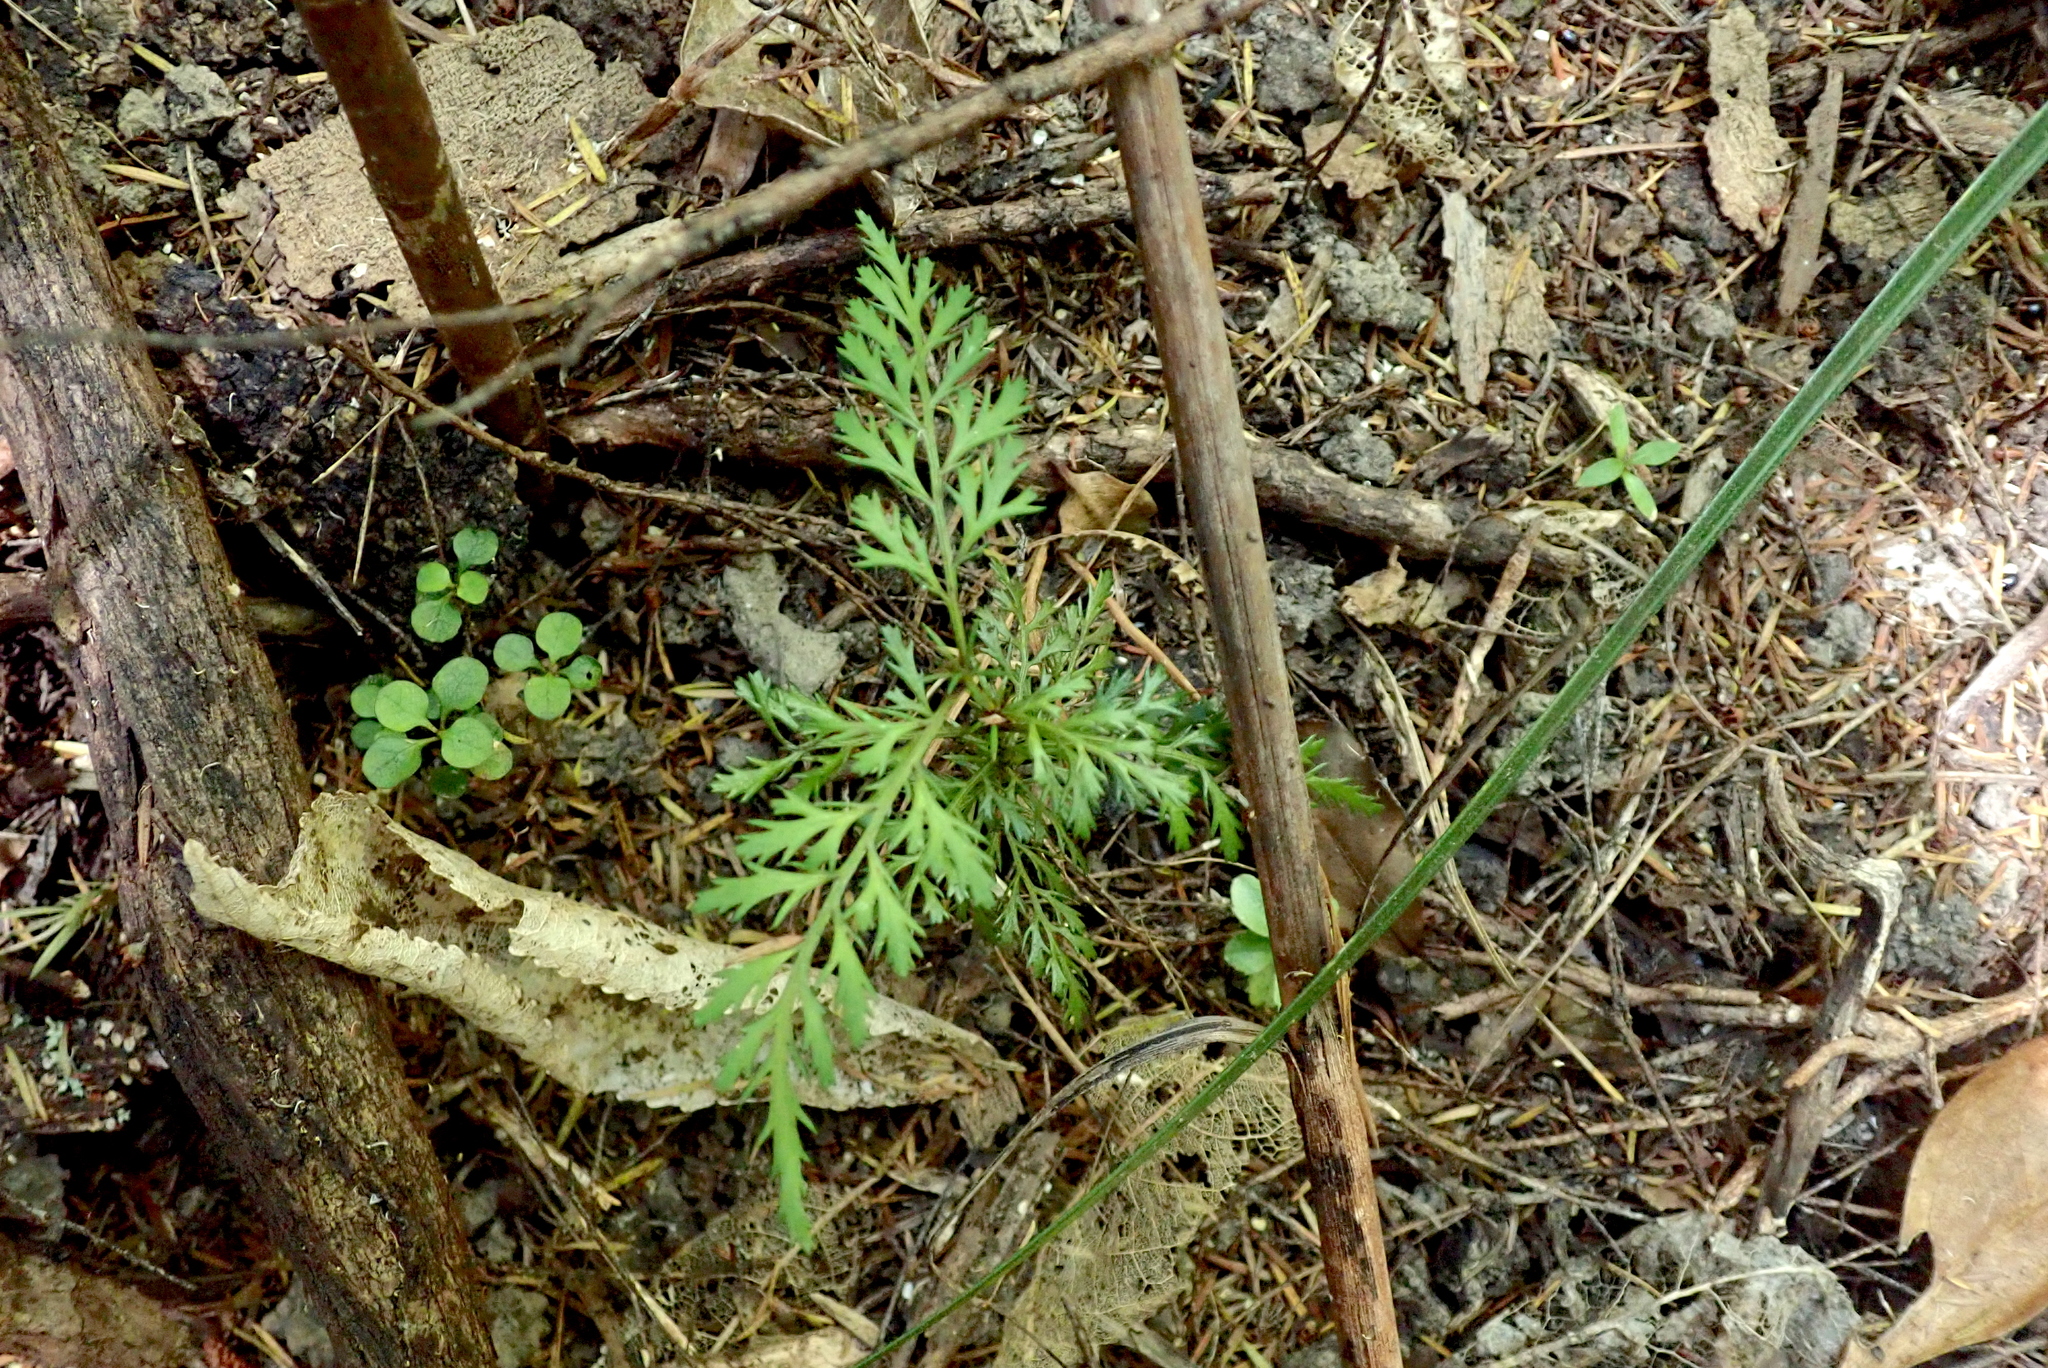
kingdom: Plantae
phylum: Tracheophyta
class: Pinopsida
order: Pinales
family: Phyllocladaceae
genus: Phyllocladus
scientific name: Phyllocladus trichomanoides
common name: Celery pine
